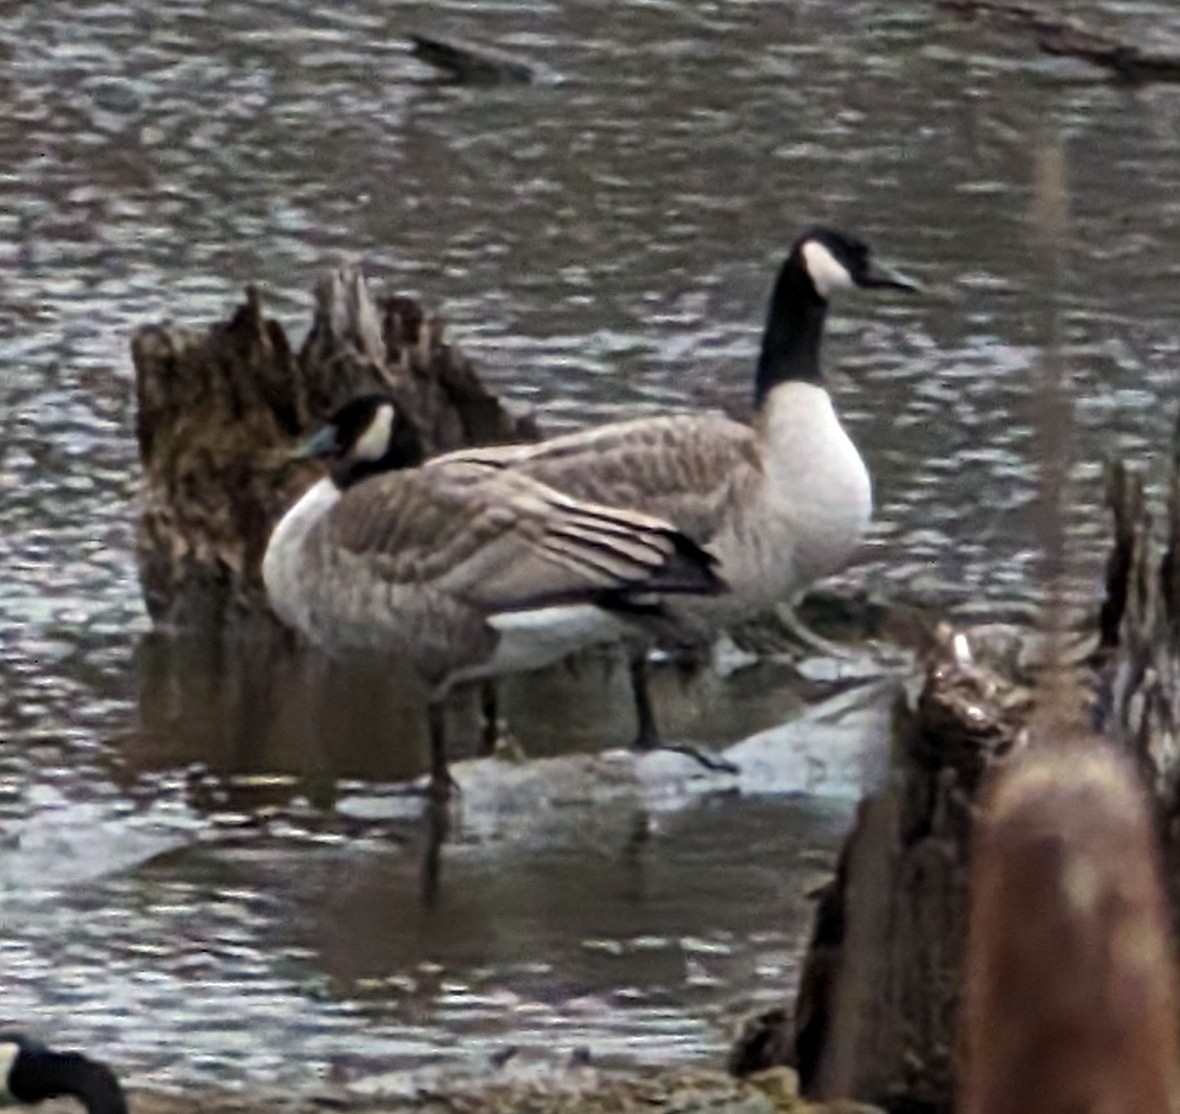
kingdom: Animalia
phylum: Chordata
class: Aves
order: Anseriformes
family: Anatidae
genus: Branta
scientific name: Branta canadensis
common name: Canada goose
